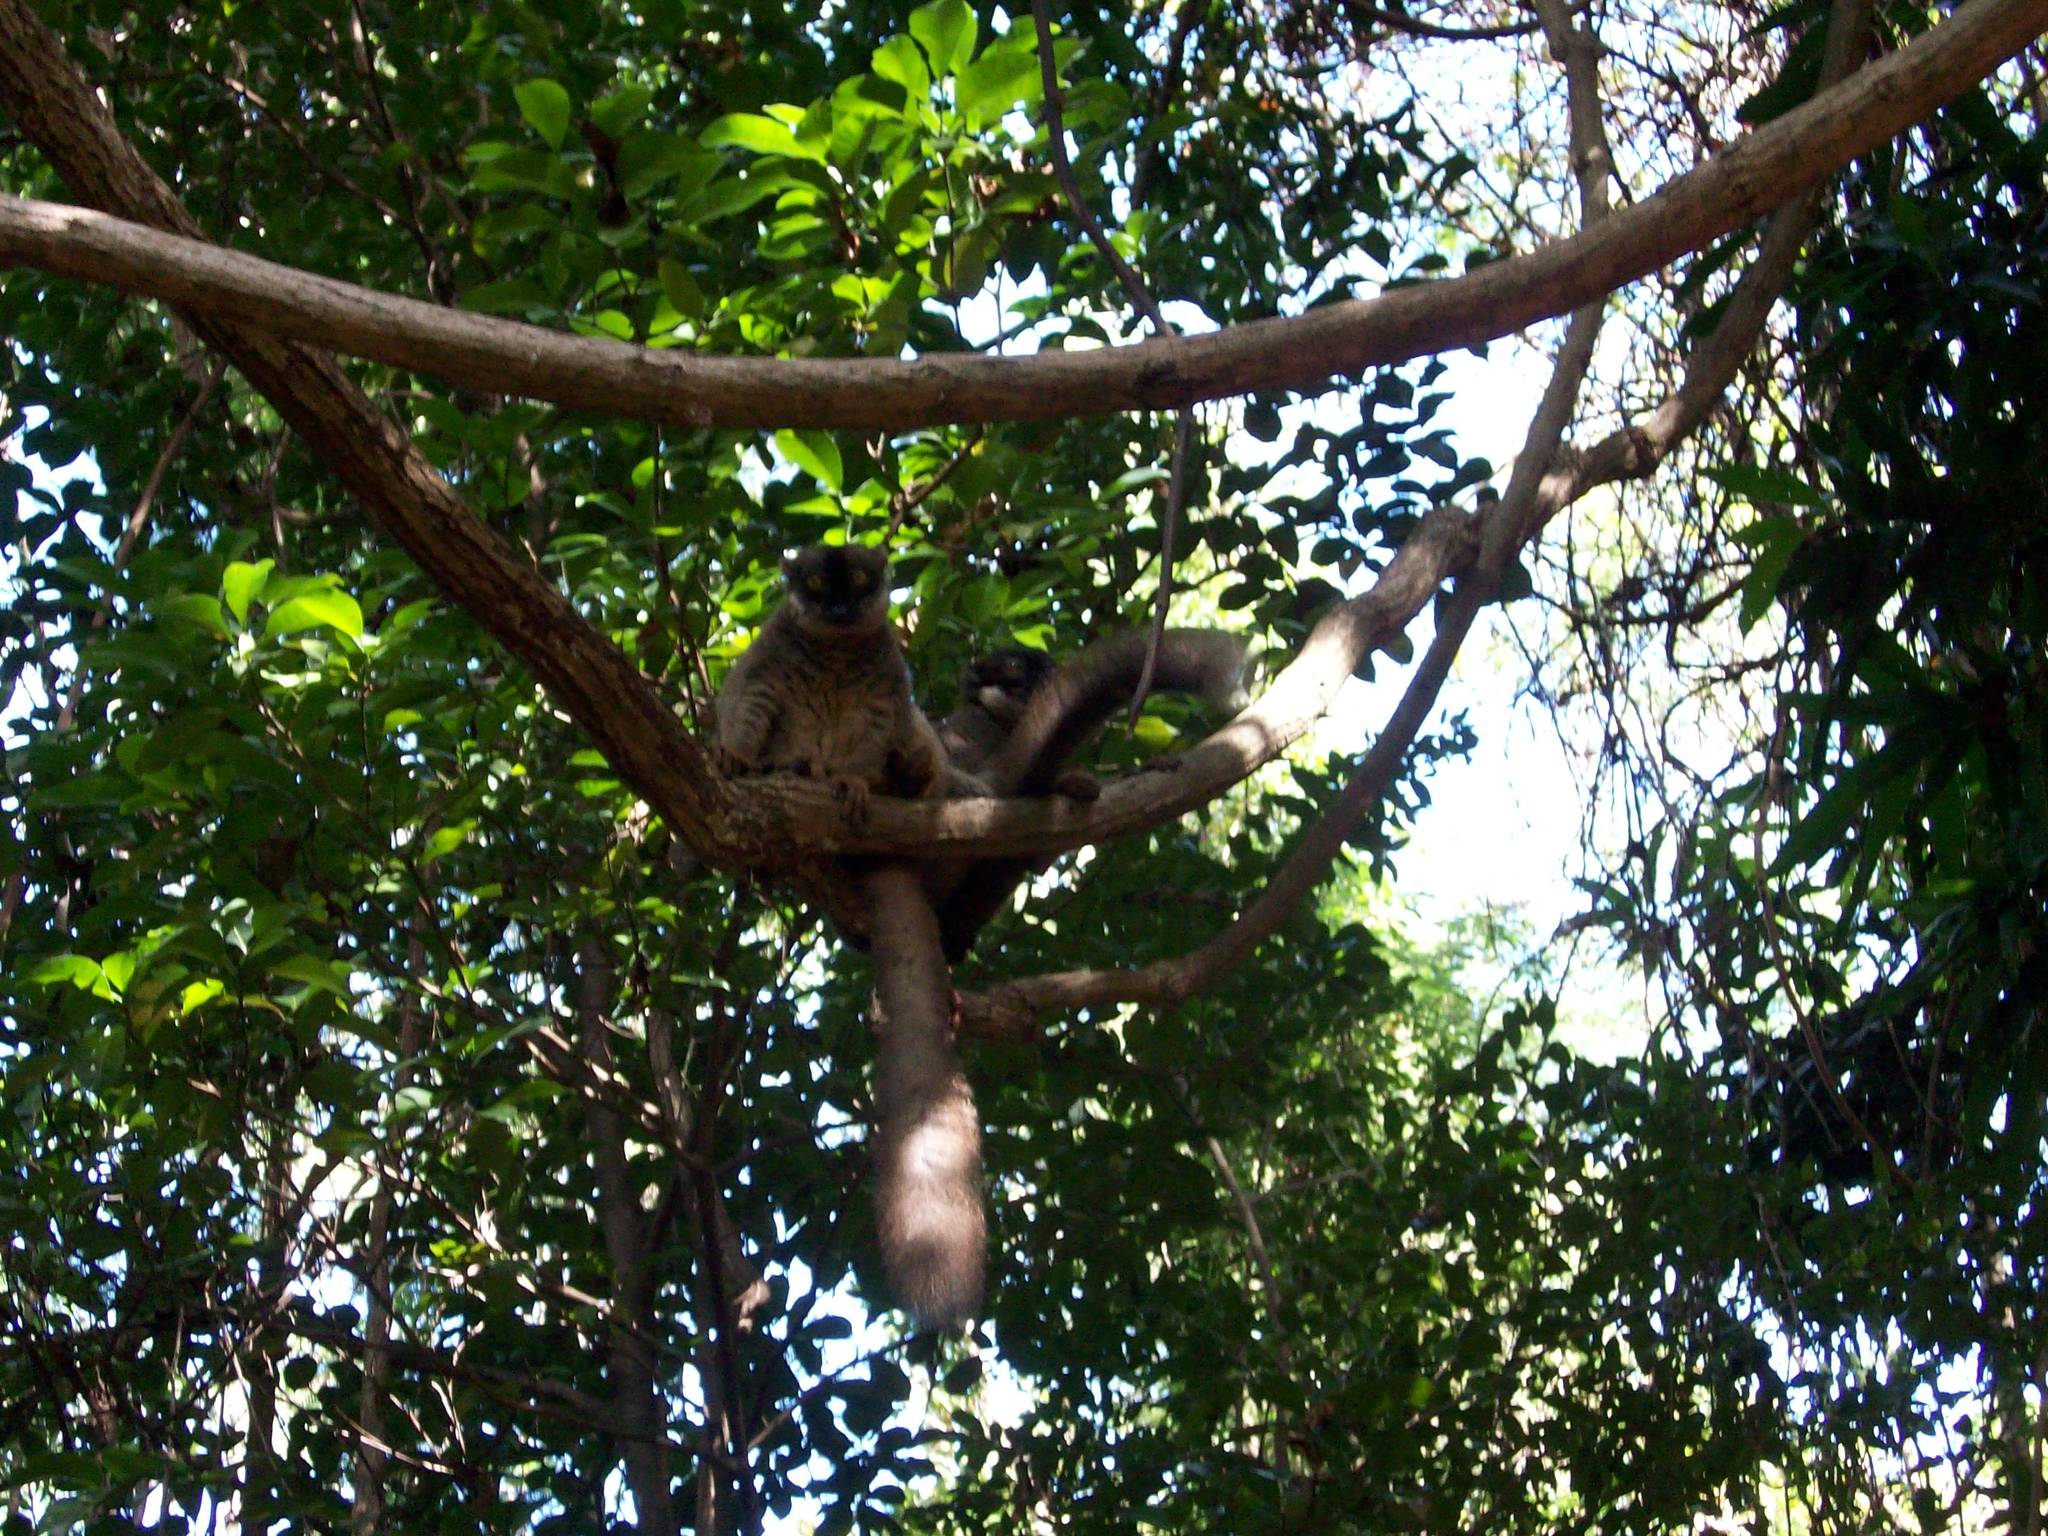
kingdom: Animalia
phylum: Chordata
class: Mammalia
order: Primates
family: Lemuridae
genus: Eulemur
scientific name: Eulemur
